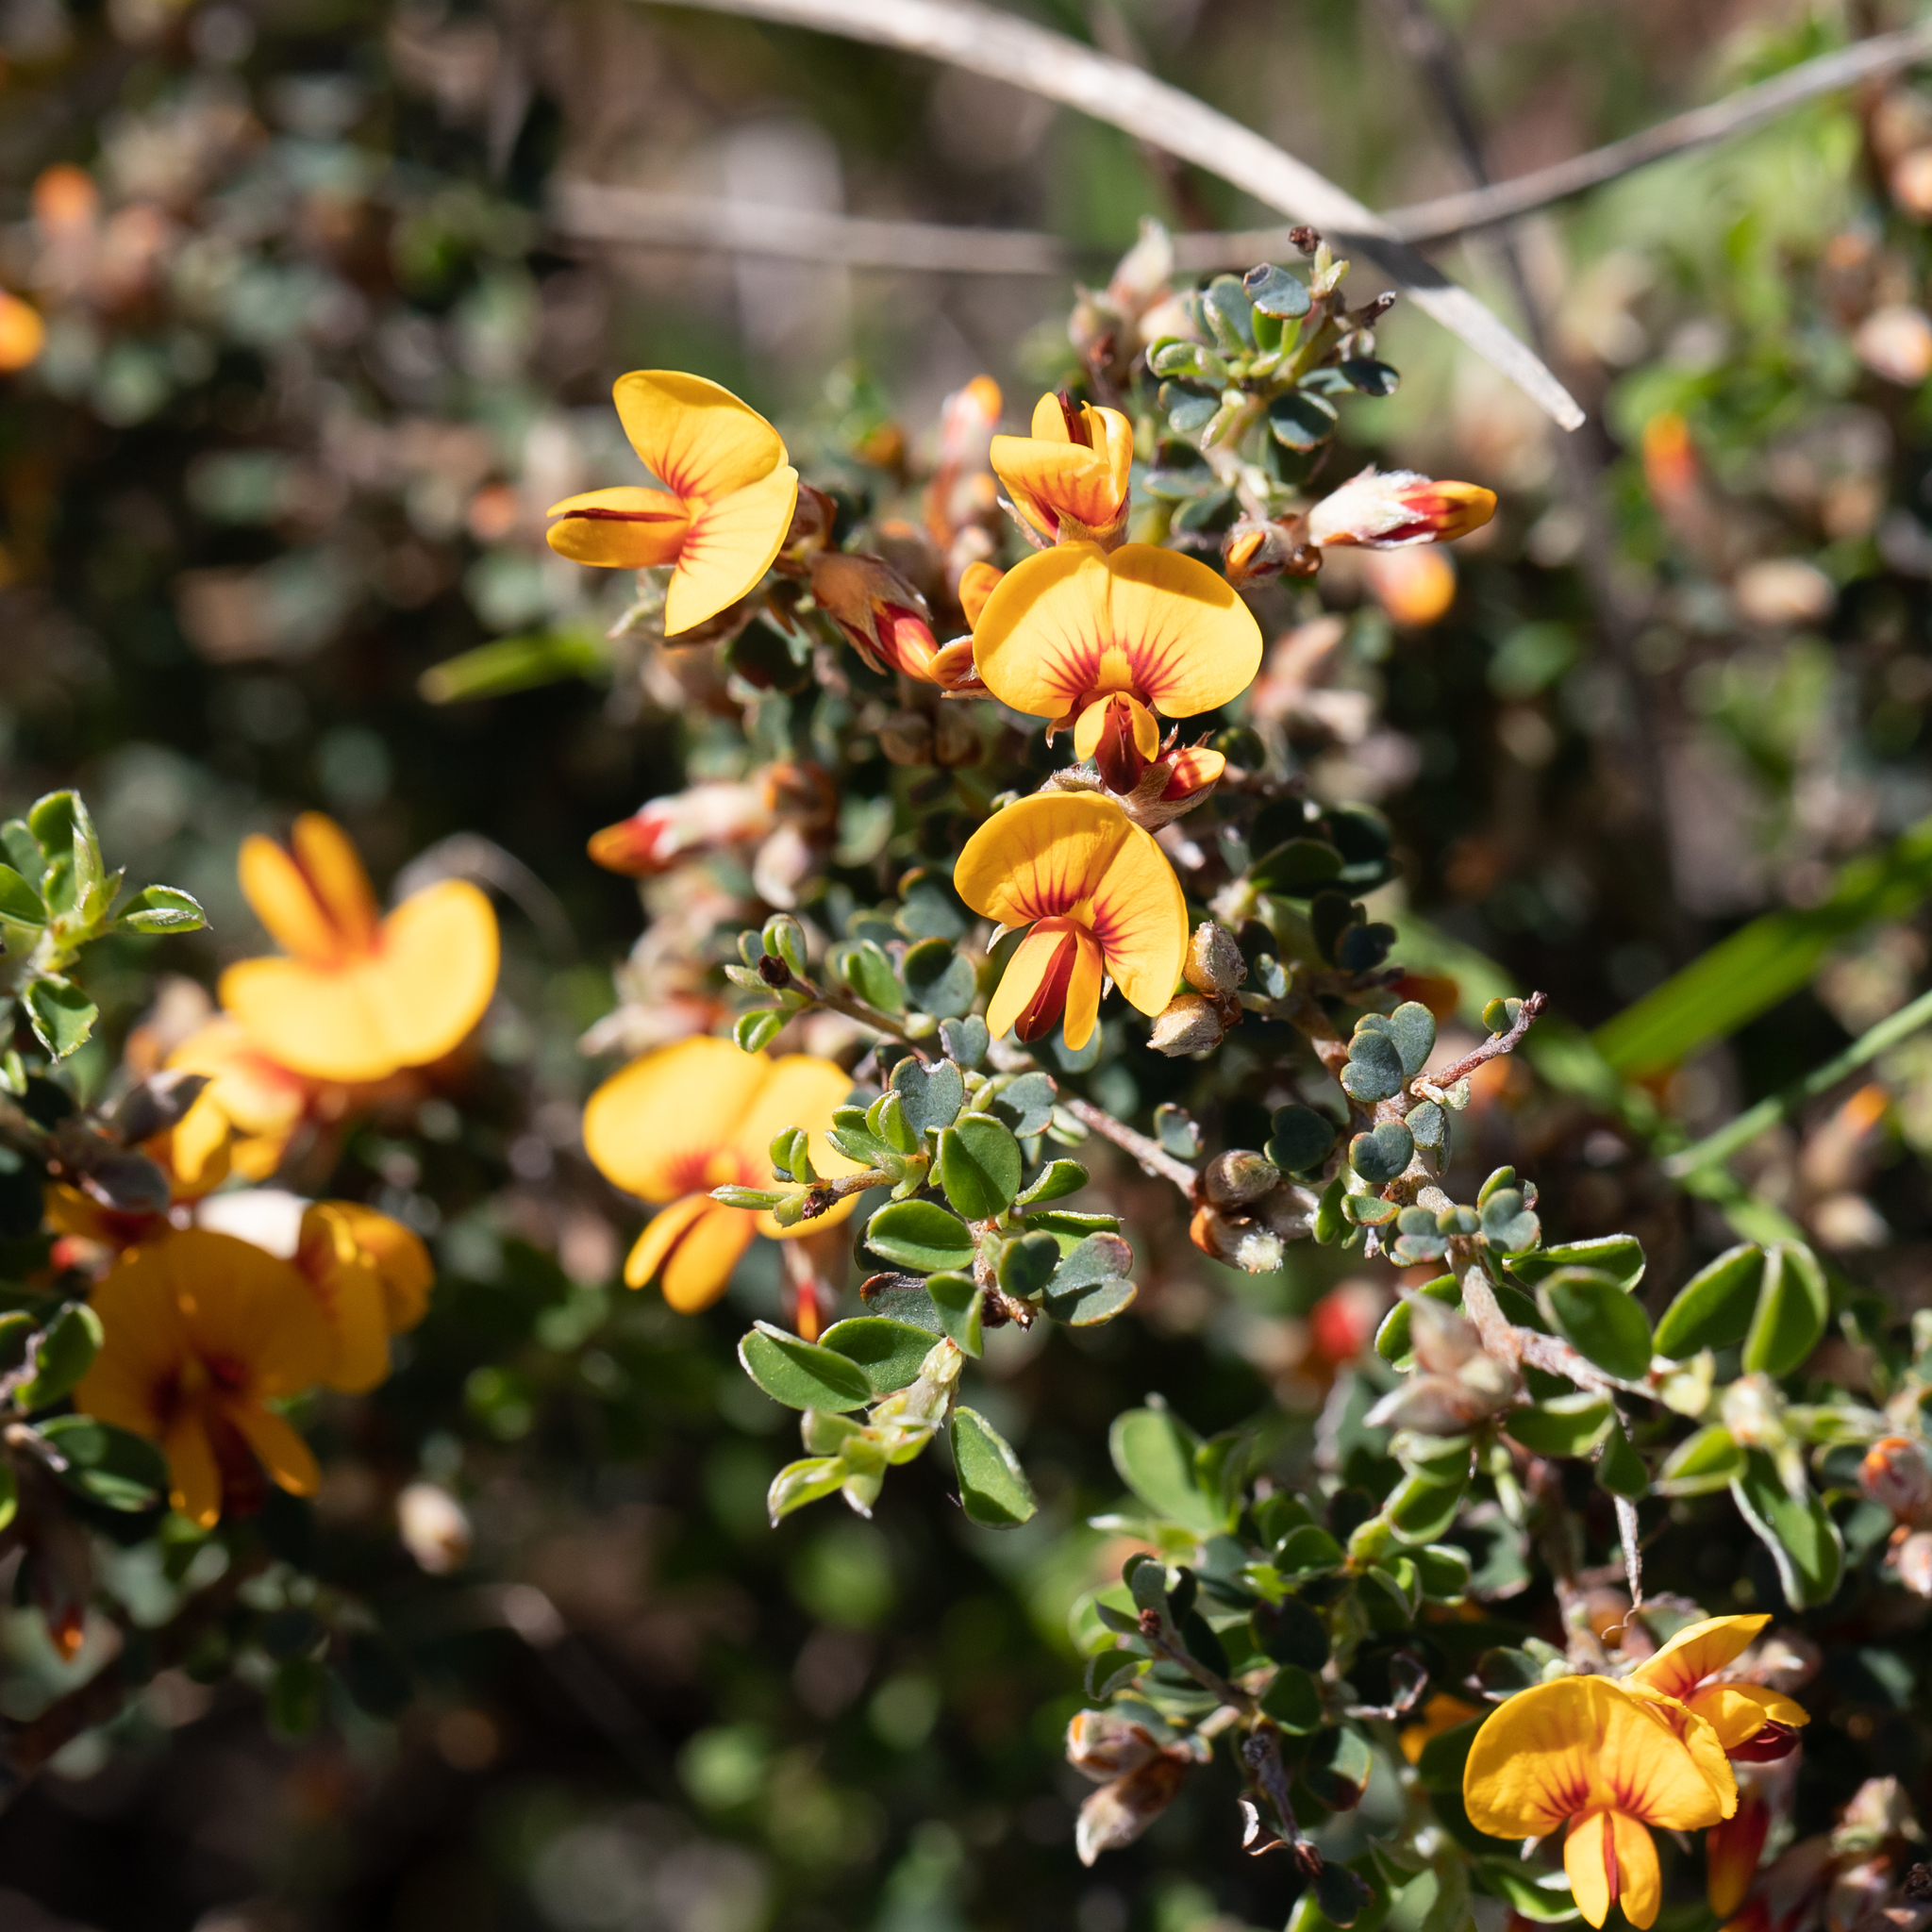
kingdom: Plantae
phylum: Tracheophyta
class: Magnoliopsida
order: Fabales
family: Fabaceae
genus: Pultenaea
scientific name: Pultenaea largiflorens
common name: Twiggy bush-pea
